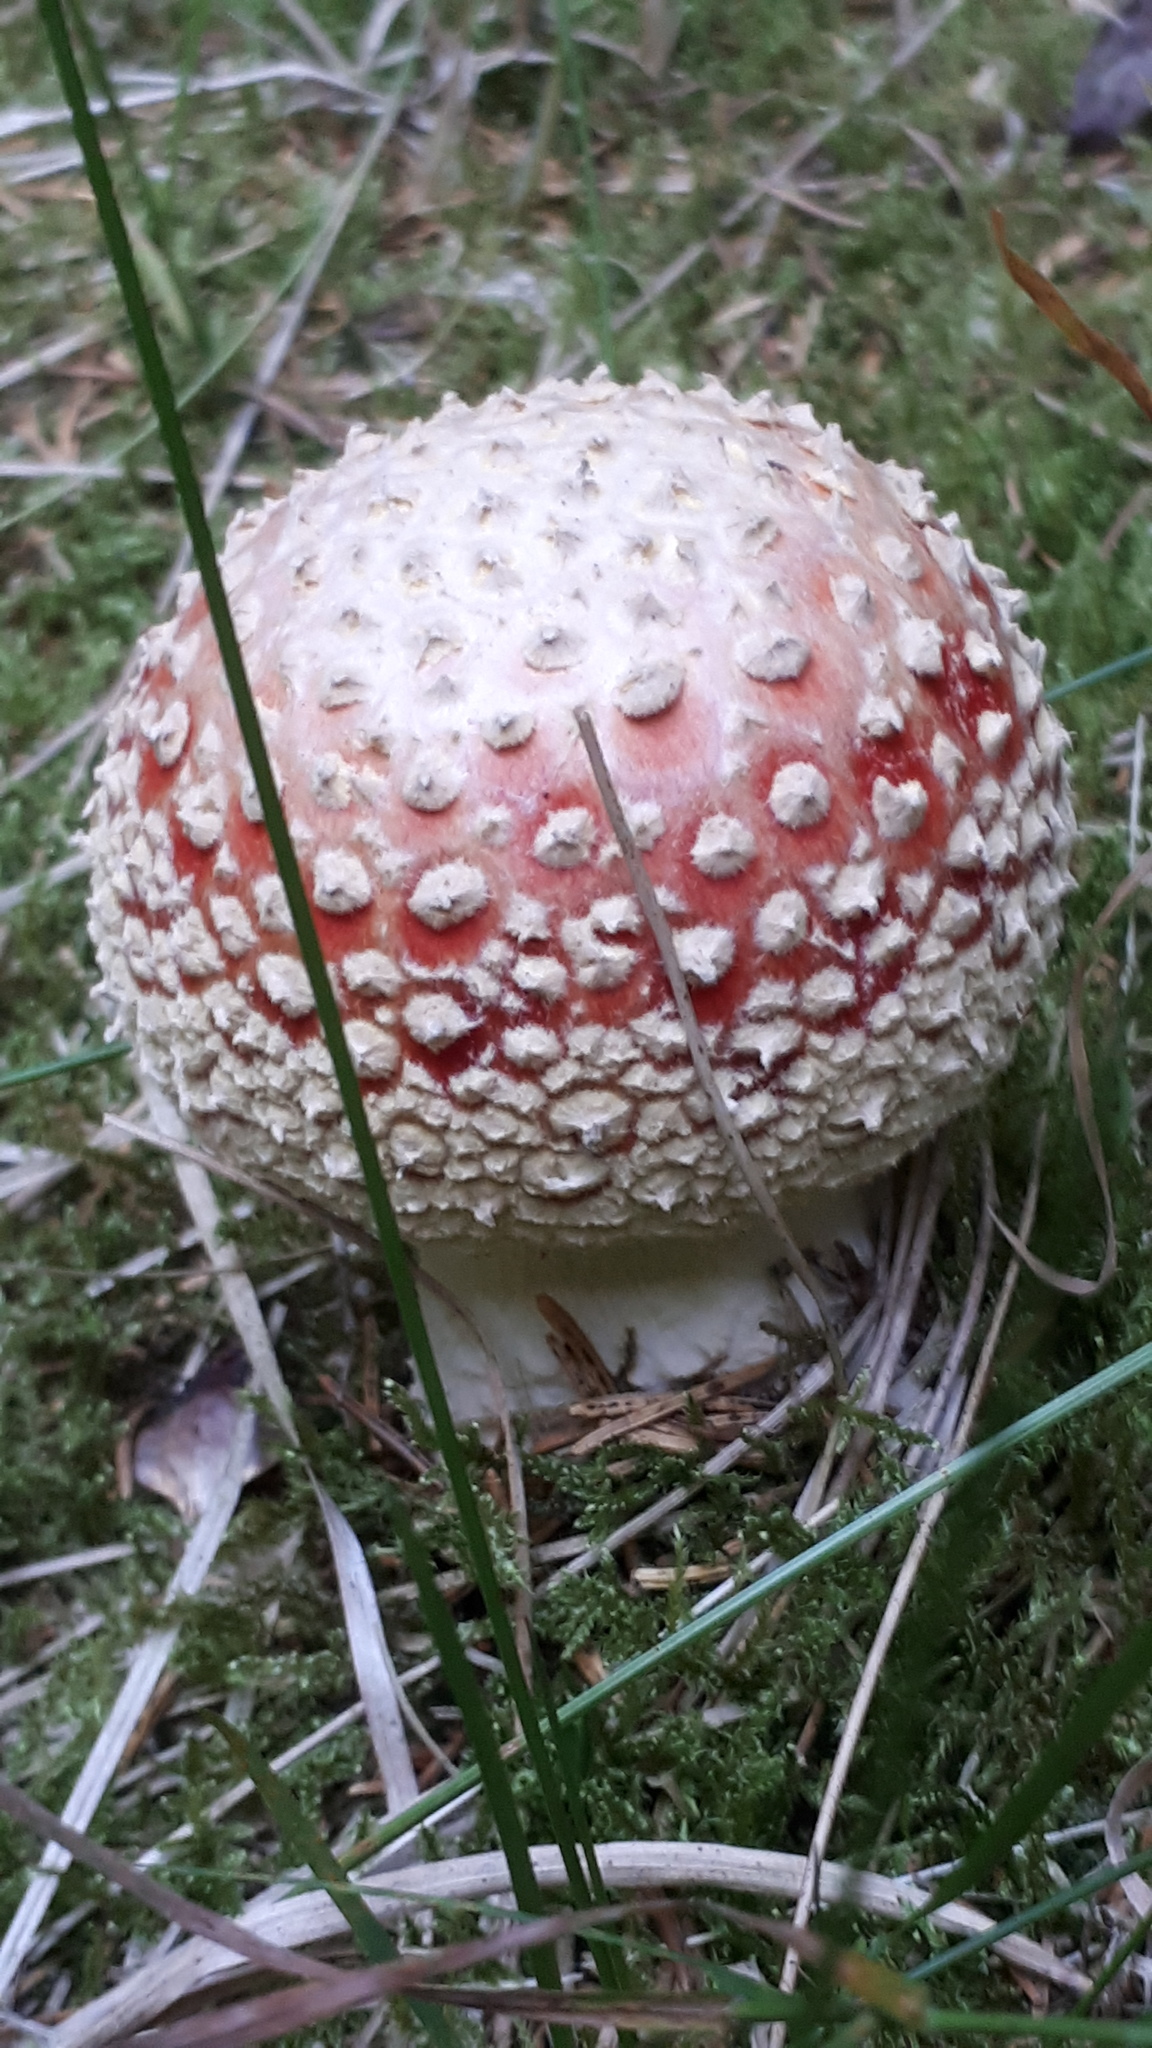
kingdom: Fungi
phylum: Basidiomycota
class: Agaricomycetes
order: Agaricales
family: Amanitaceae
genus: Amanita
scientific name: Amanita muscaria
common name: Fly agaric
